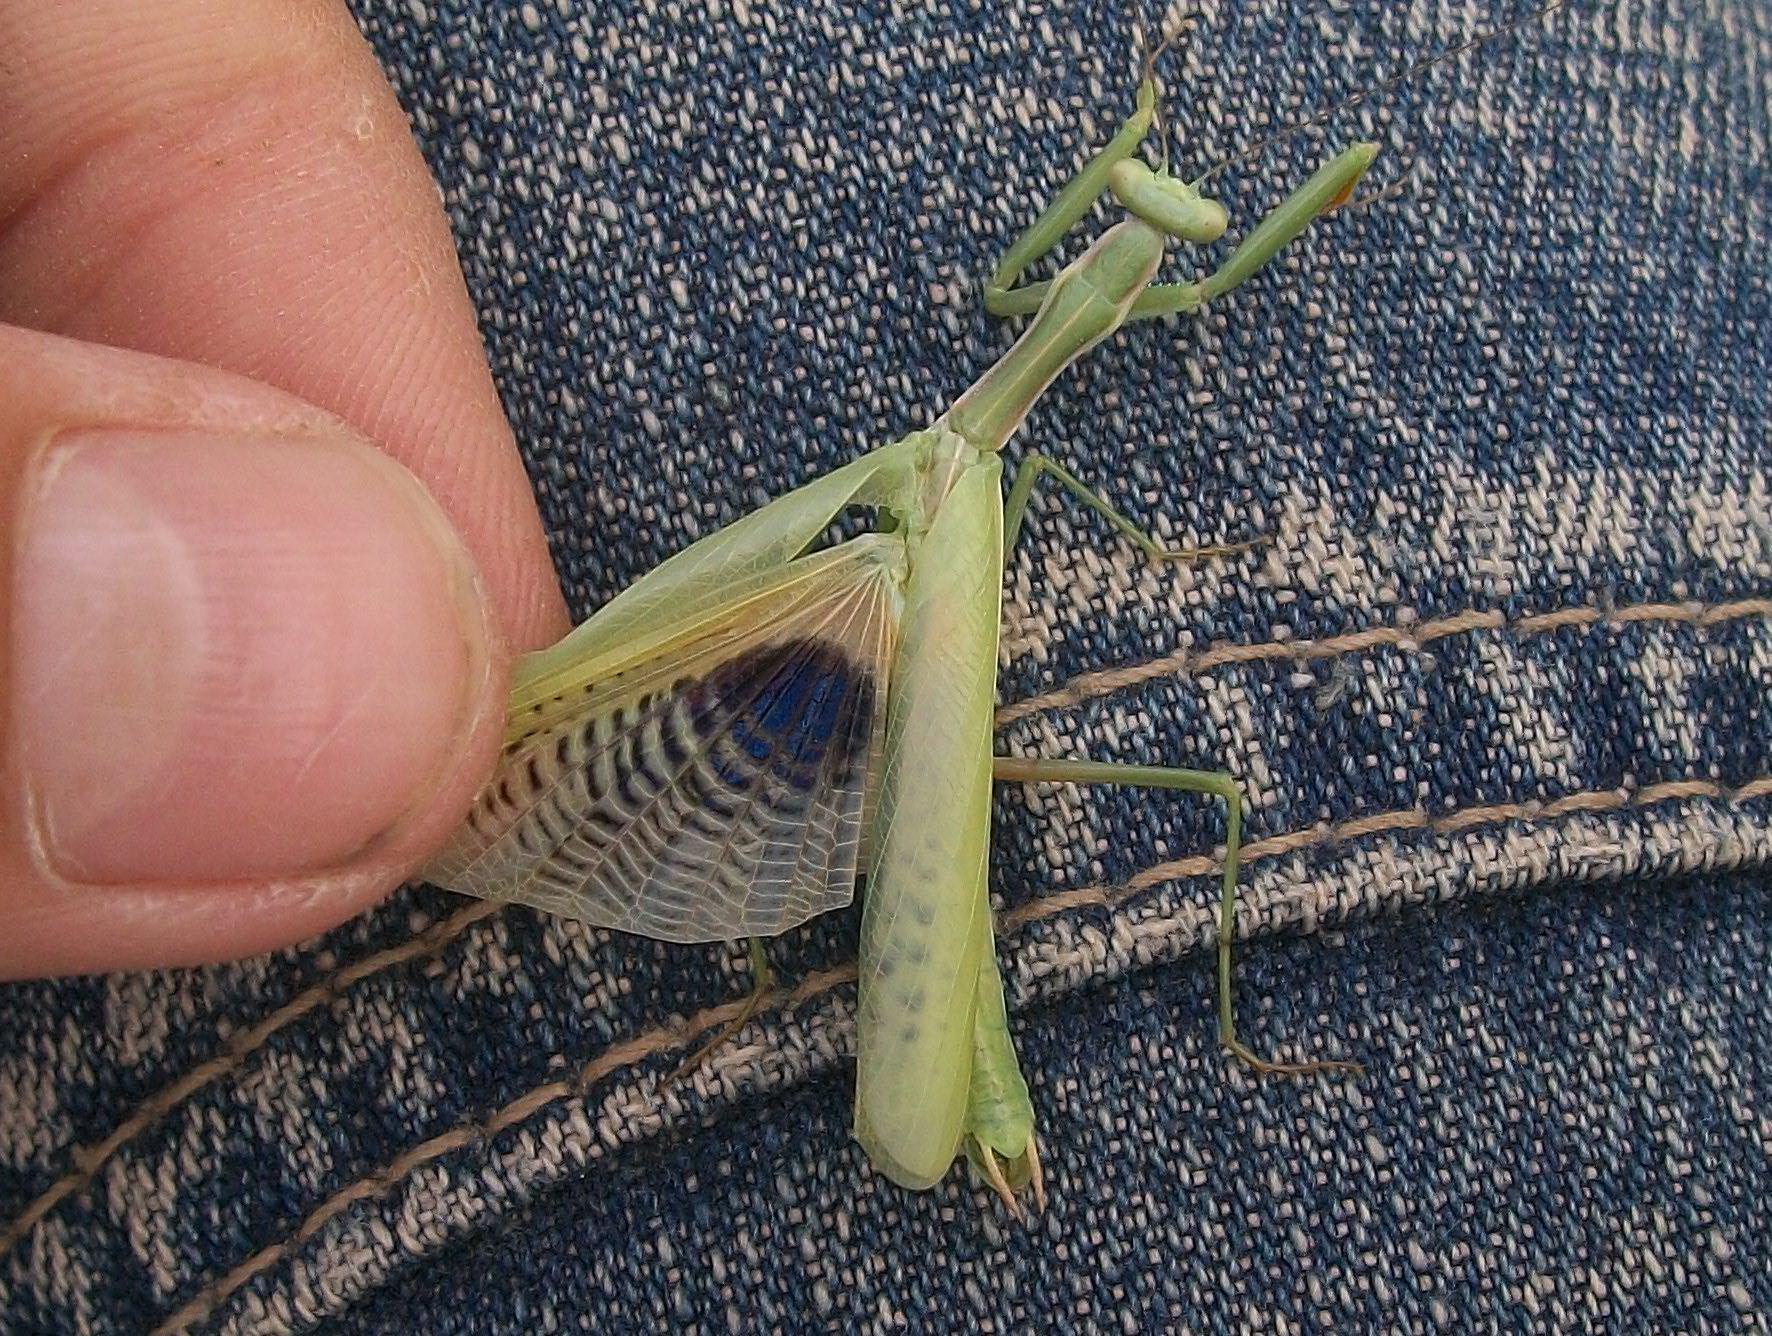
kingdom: Animalia
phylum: Arthropoda
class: Insecta
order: Mantodea
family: Eremiaphilidae
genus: Iris
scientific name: Iris polystictica
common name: Dot-winged mantis
